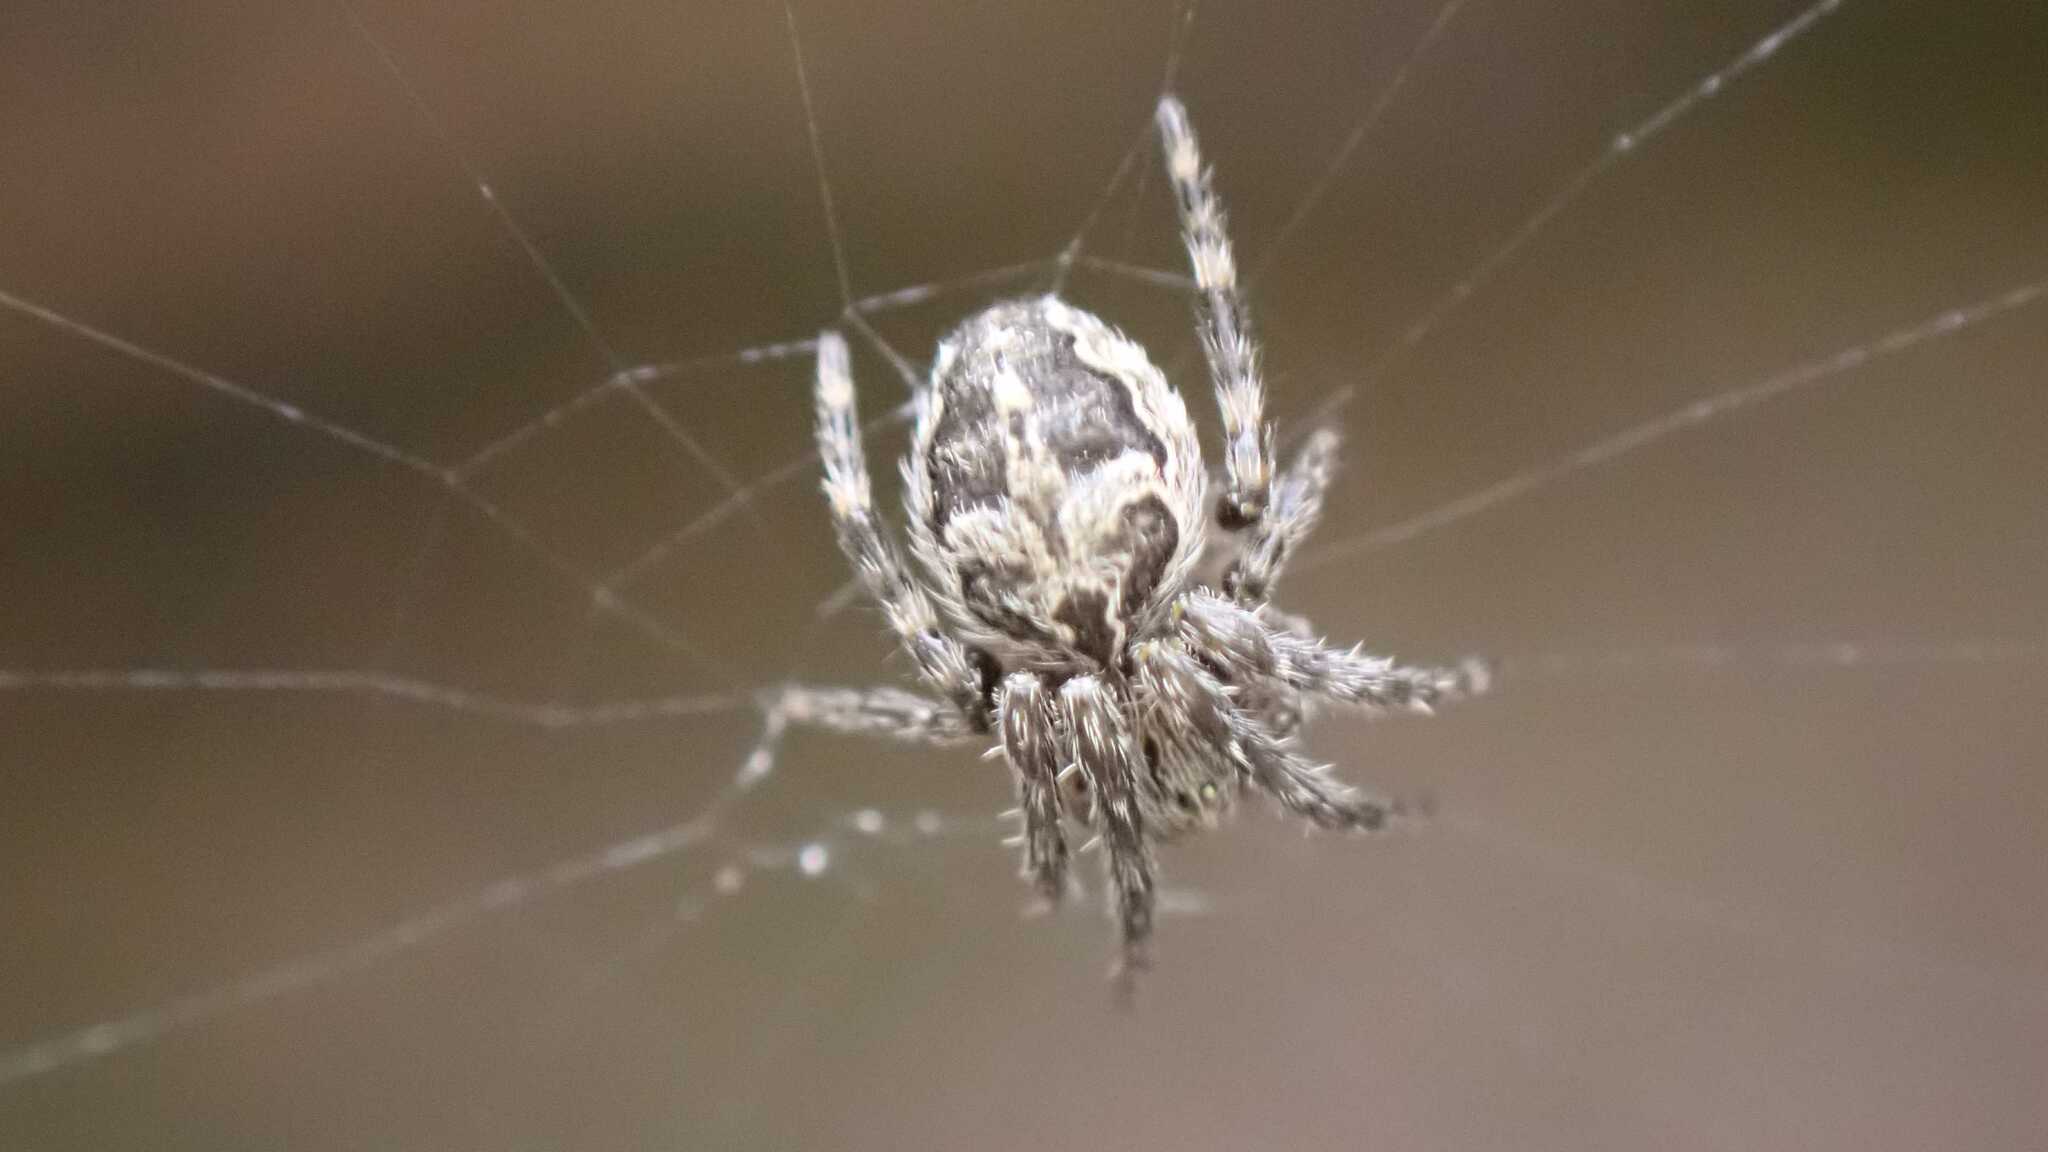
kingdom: Animalia
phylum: Arthropoda
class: Arachnida
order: Araneae
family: Araneidae
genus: Larinioides
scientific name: Larinioides sclopetarius
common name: Bridge orbweaver
